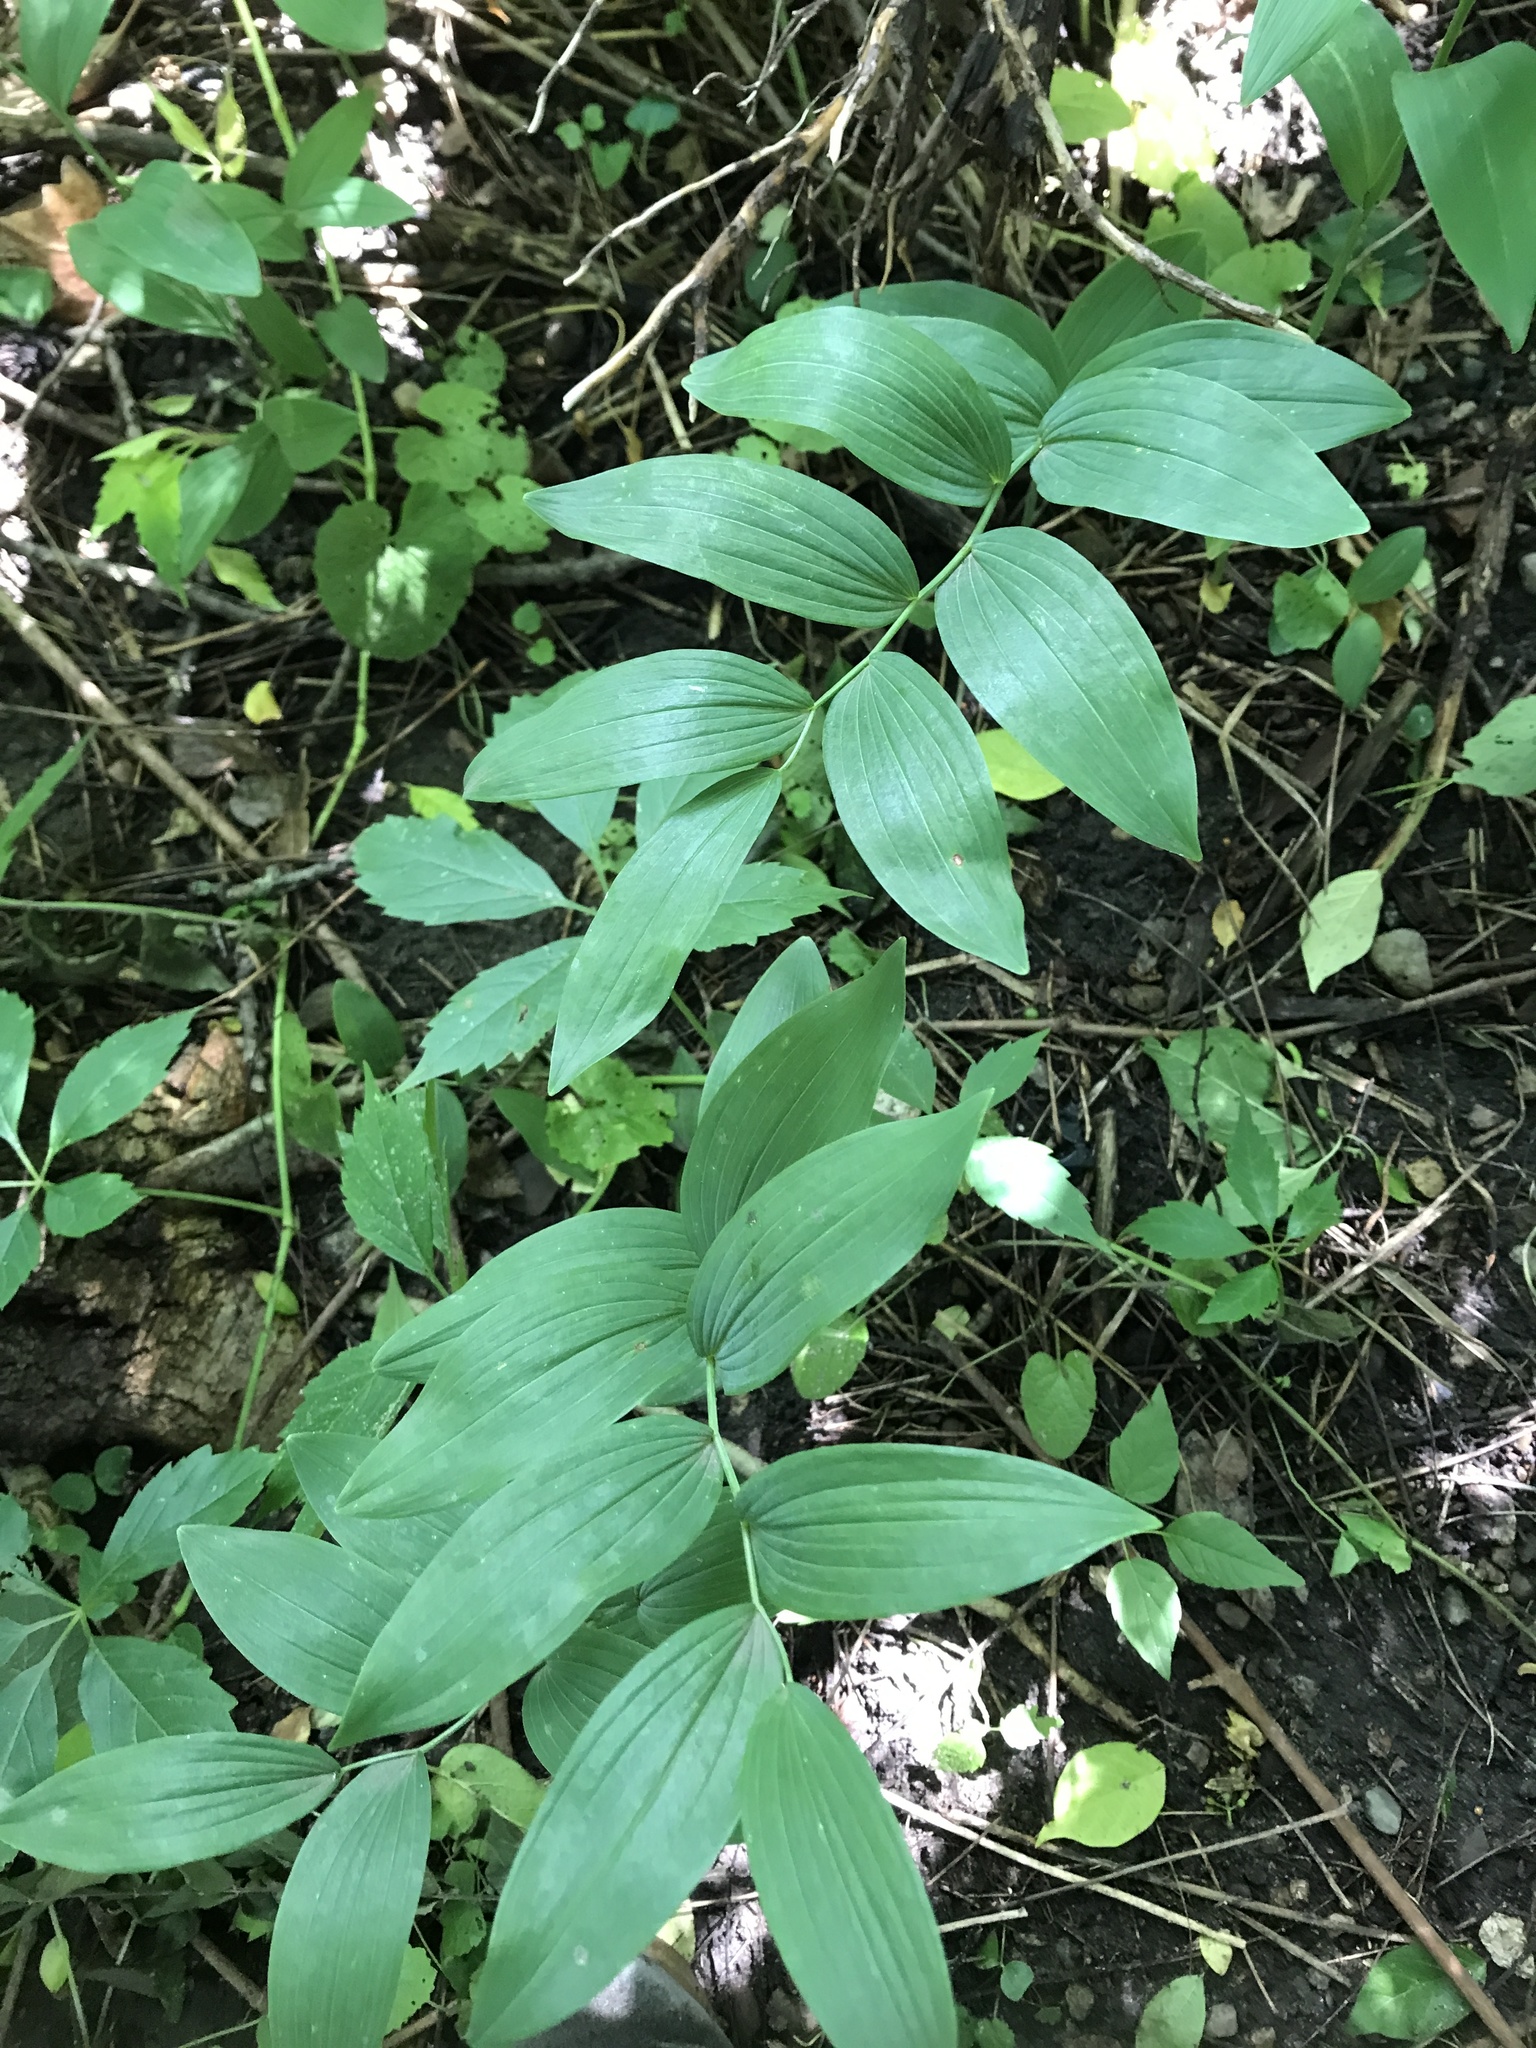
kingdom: Plantae
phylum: Tracheophyta
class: Liliopsida
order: Asparagales
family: Asparagaceae
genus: Polygonatum
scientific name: Polygonatum biflorum
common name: American solomon's-seal
